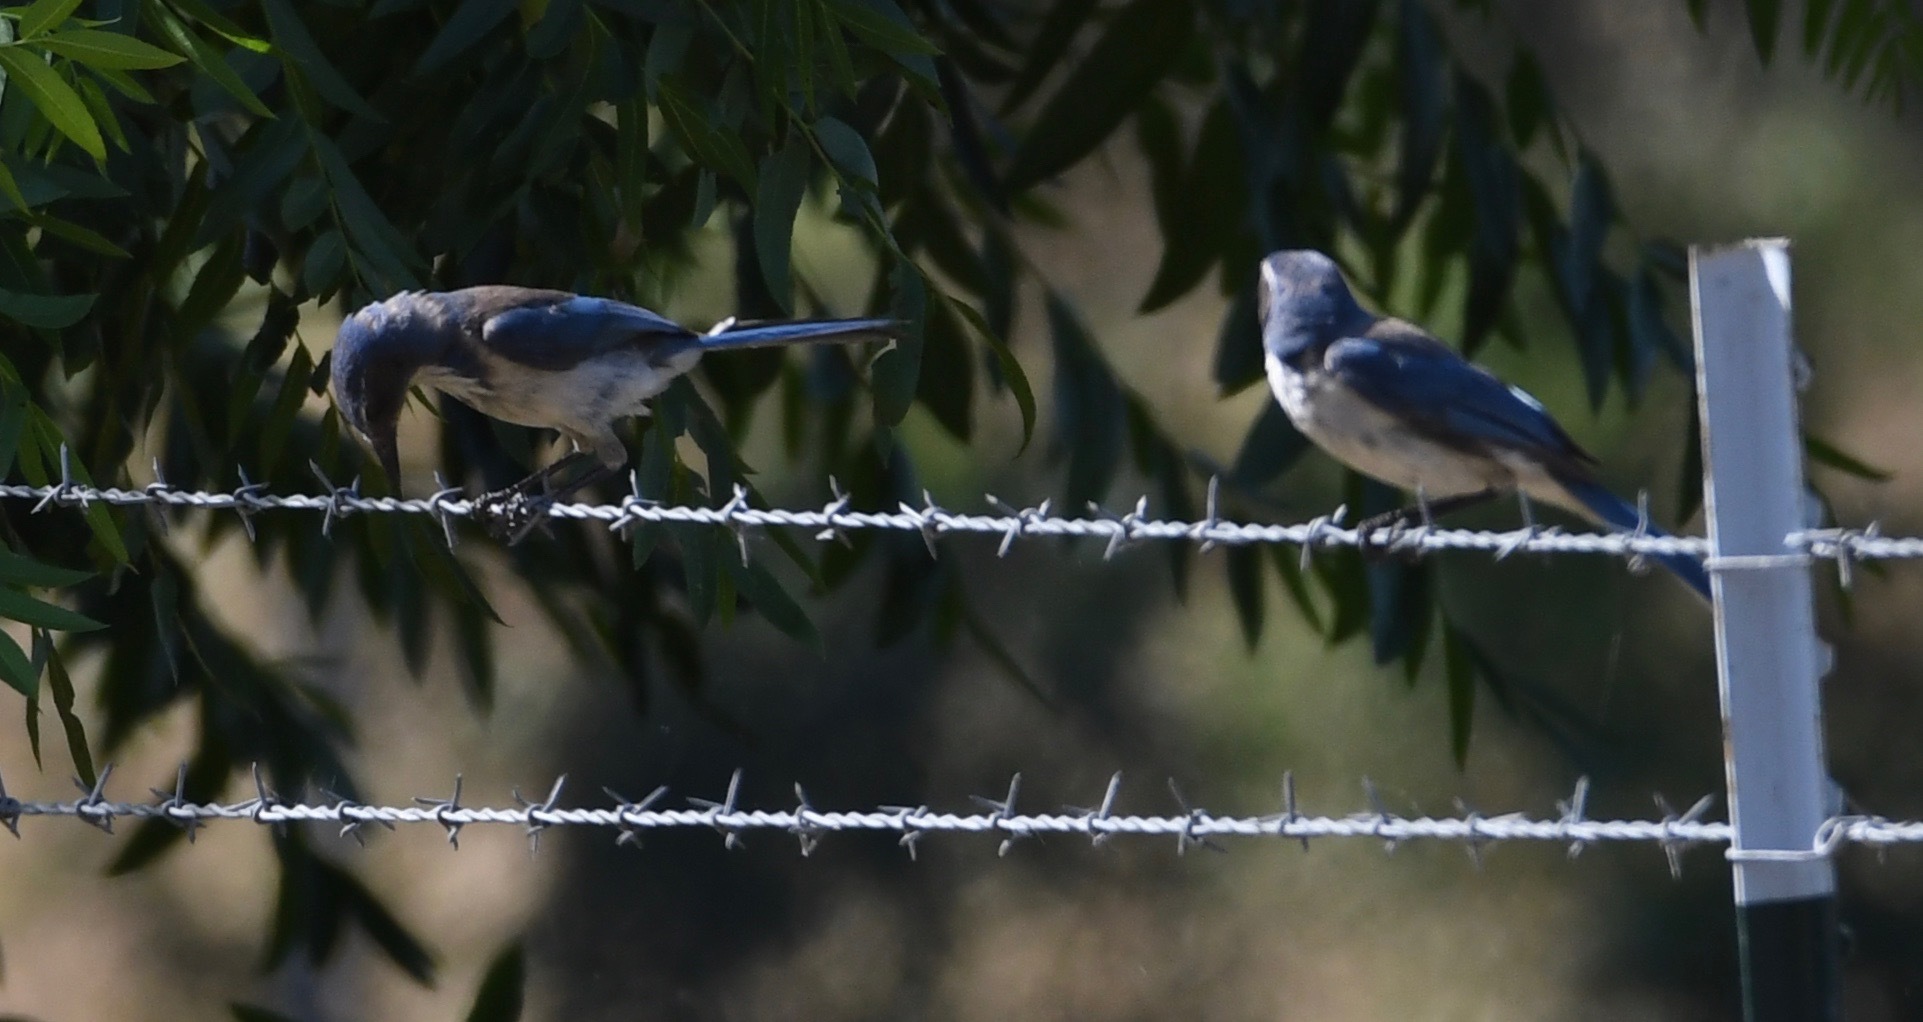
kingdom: Animalia
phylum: Chordata
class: Aves
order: Passeriformes
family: Corvidae
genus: Aphelocoma
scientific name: Aphelocoma californica
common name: California scrub-jay
